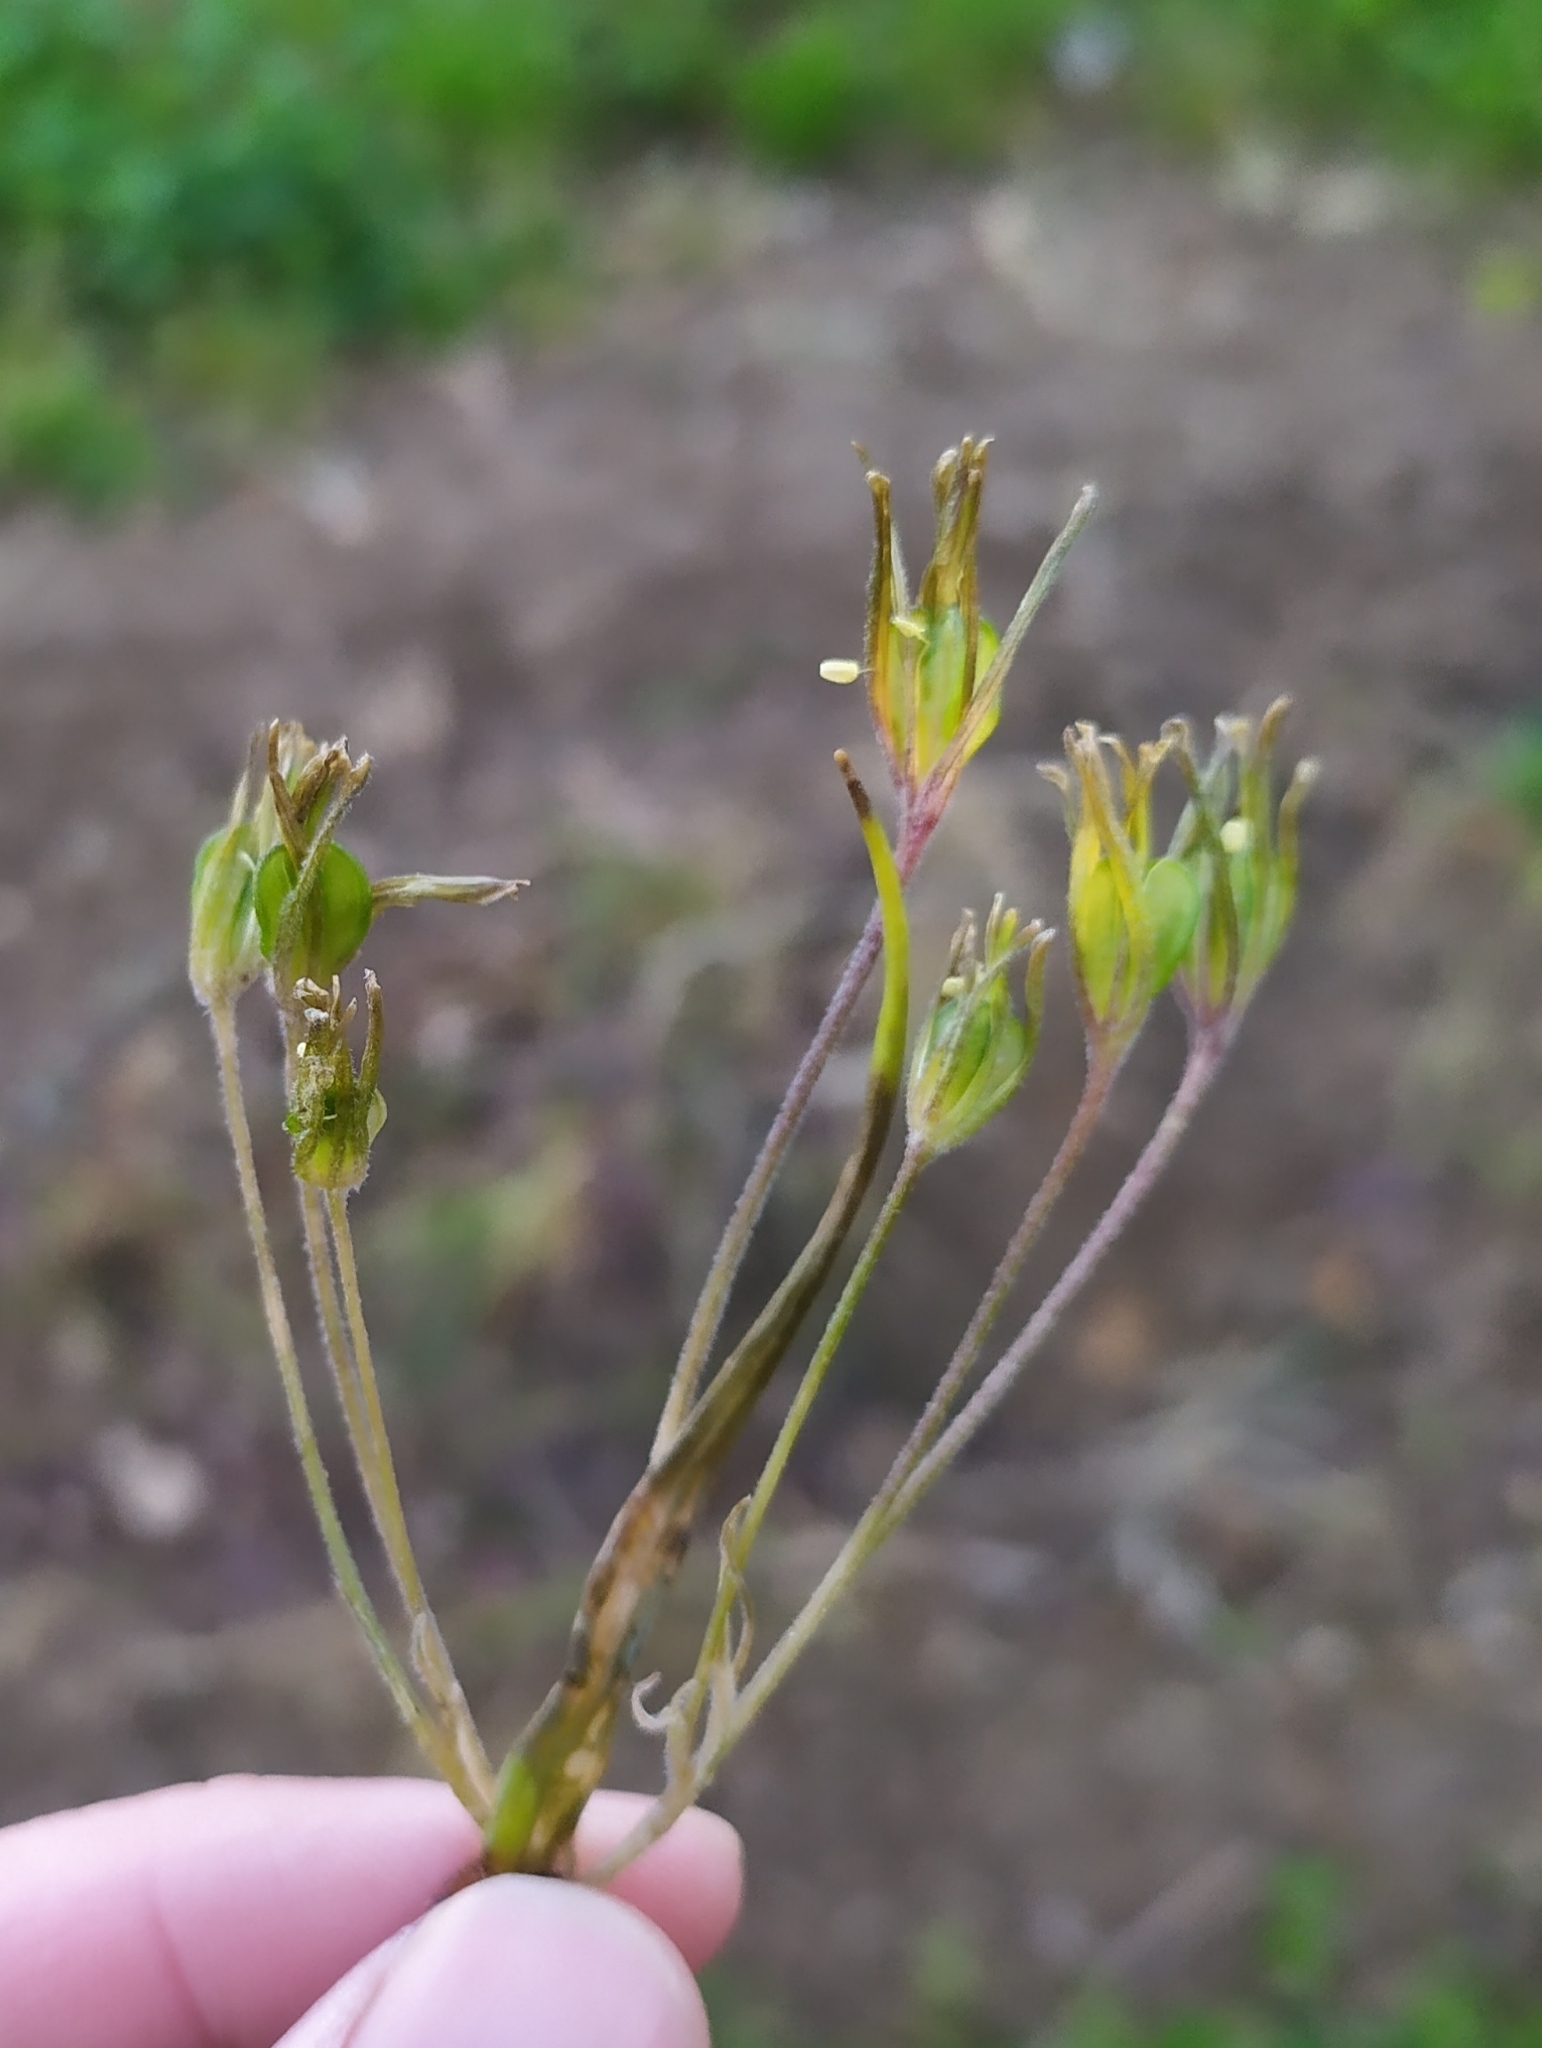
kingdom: Plantae
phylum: Tracheophyta
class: Liliopsida
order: Liliales
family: Liliaceae
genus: Gagea
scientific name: Gagea villosa
